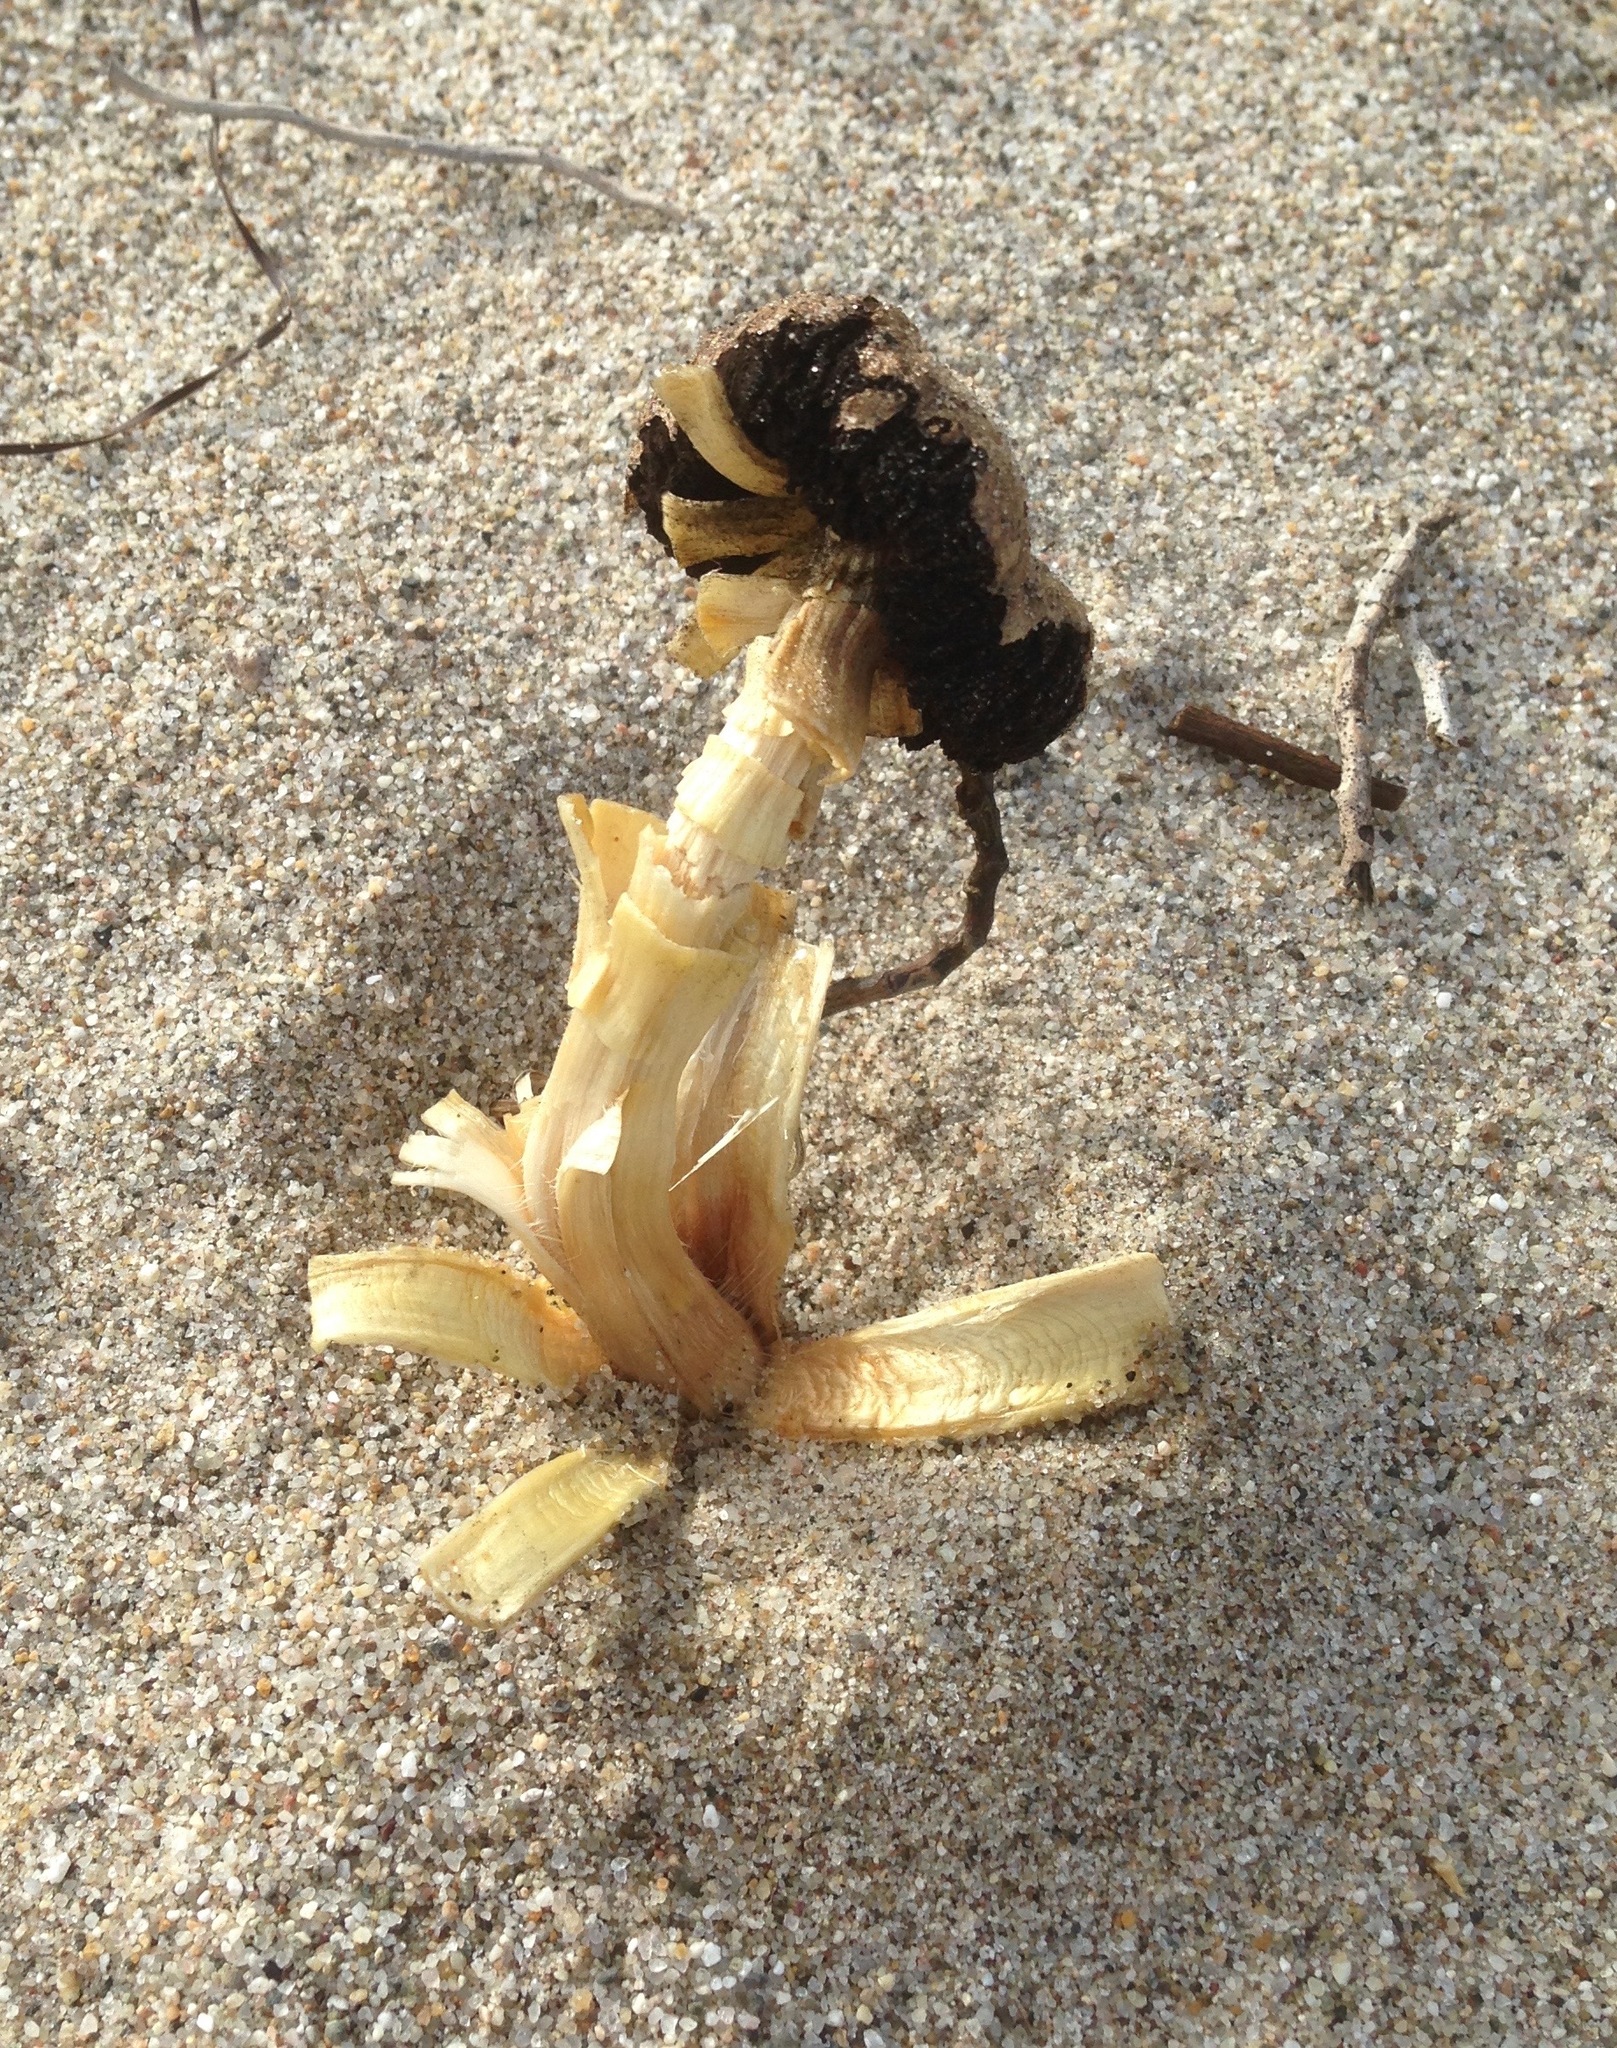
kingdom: Fungi
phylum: Basidiomycota
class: Agaricomycetes
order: Agaricales
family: Agaricaceae
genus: Agaricus
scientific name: Agaricus zelleri
